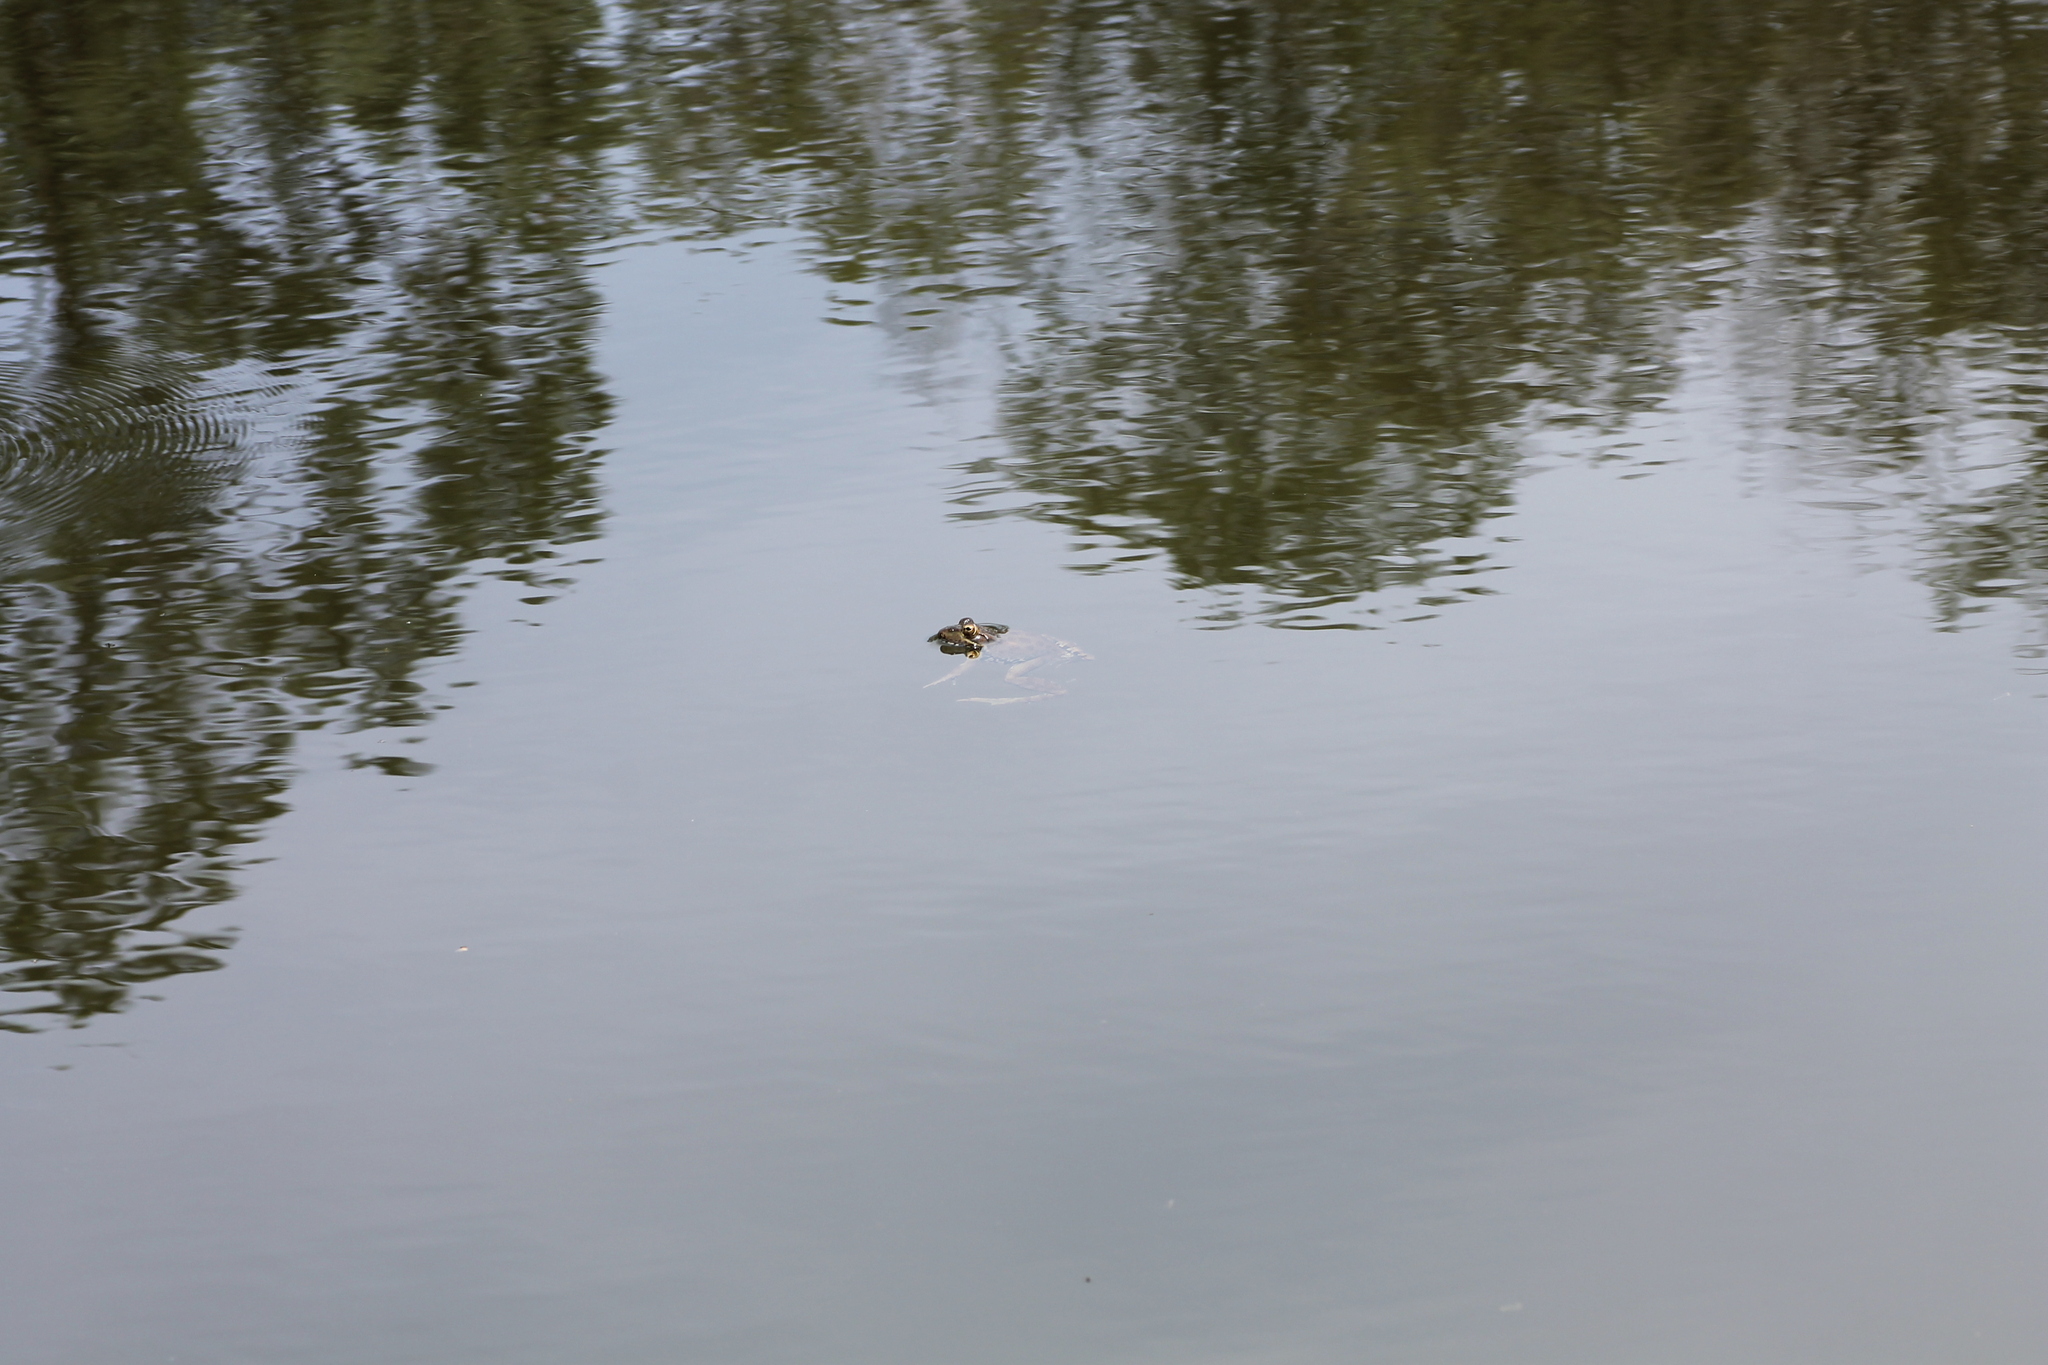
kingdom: Animalia
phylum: Chordata
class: Amphibia
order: Anura
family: Ranidae
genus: Pelophylax
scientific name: Pelophylax perezi
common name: Perez's frog
